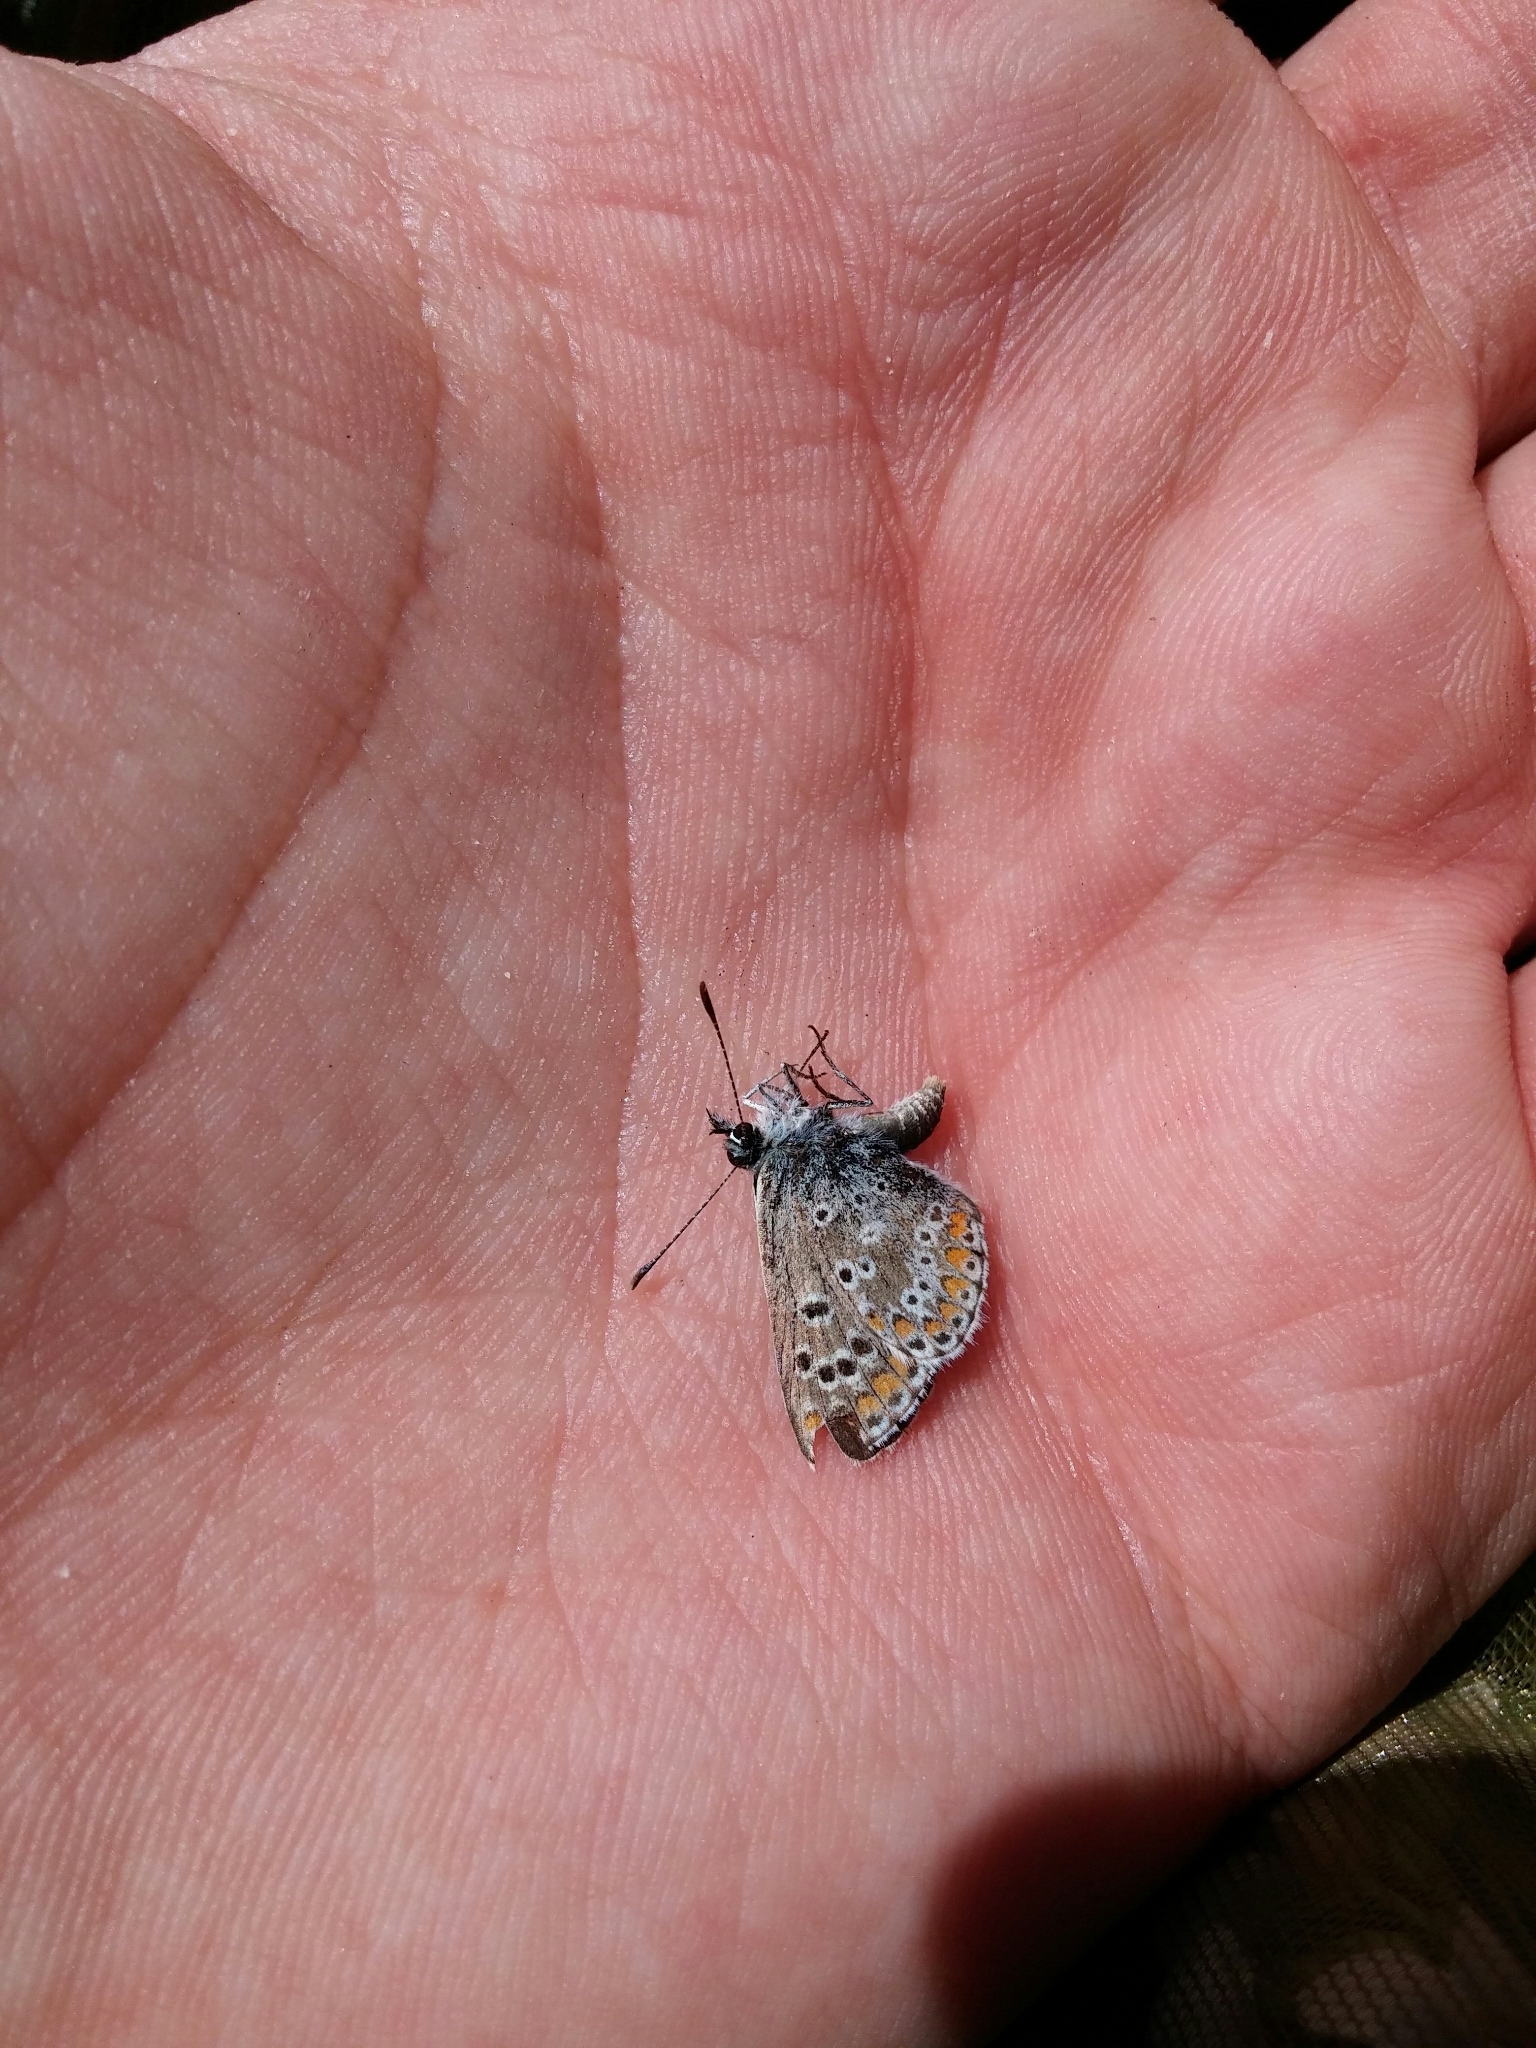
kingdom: Animalia
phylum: Arthropoda
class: Insecta
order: Lepidoptera
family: Lycaenidae
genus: Aricia
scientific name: Aricia cramera
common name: Eschscholtz´s brown  argus
